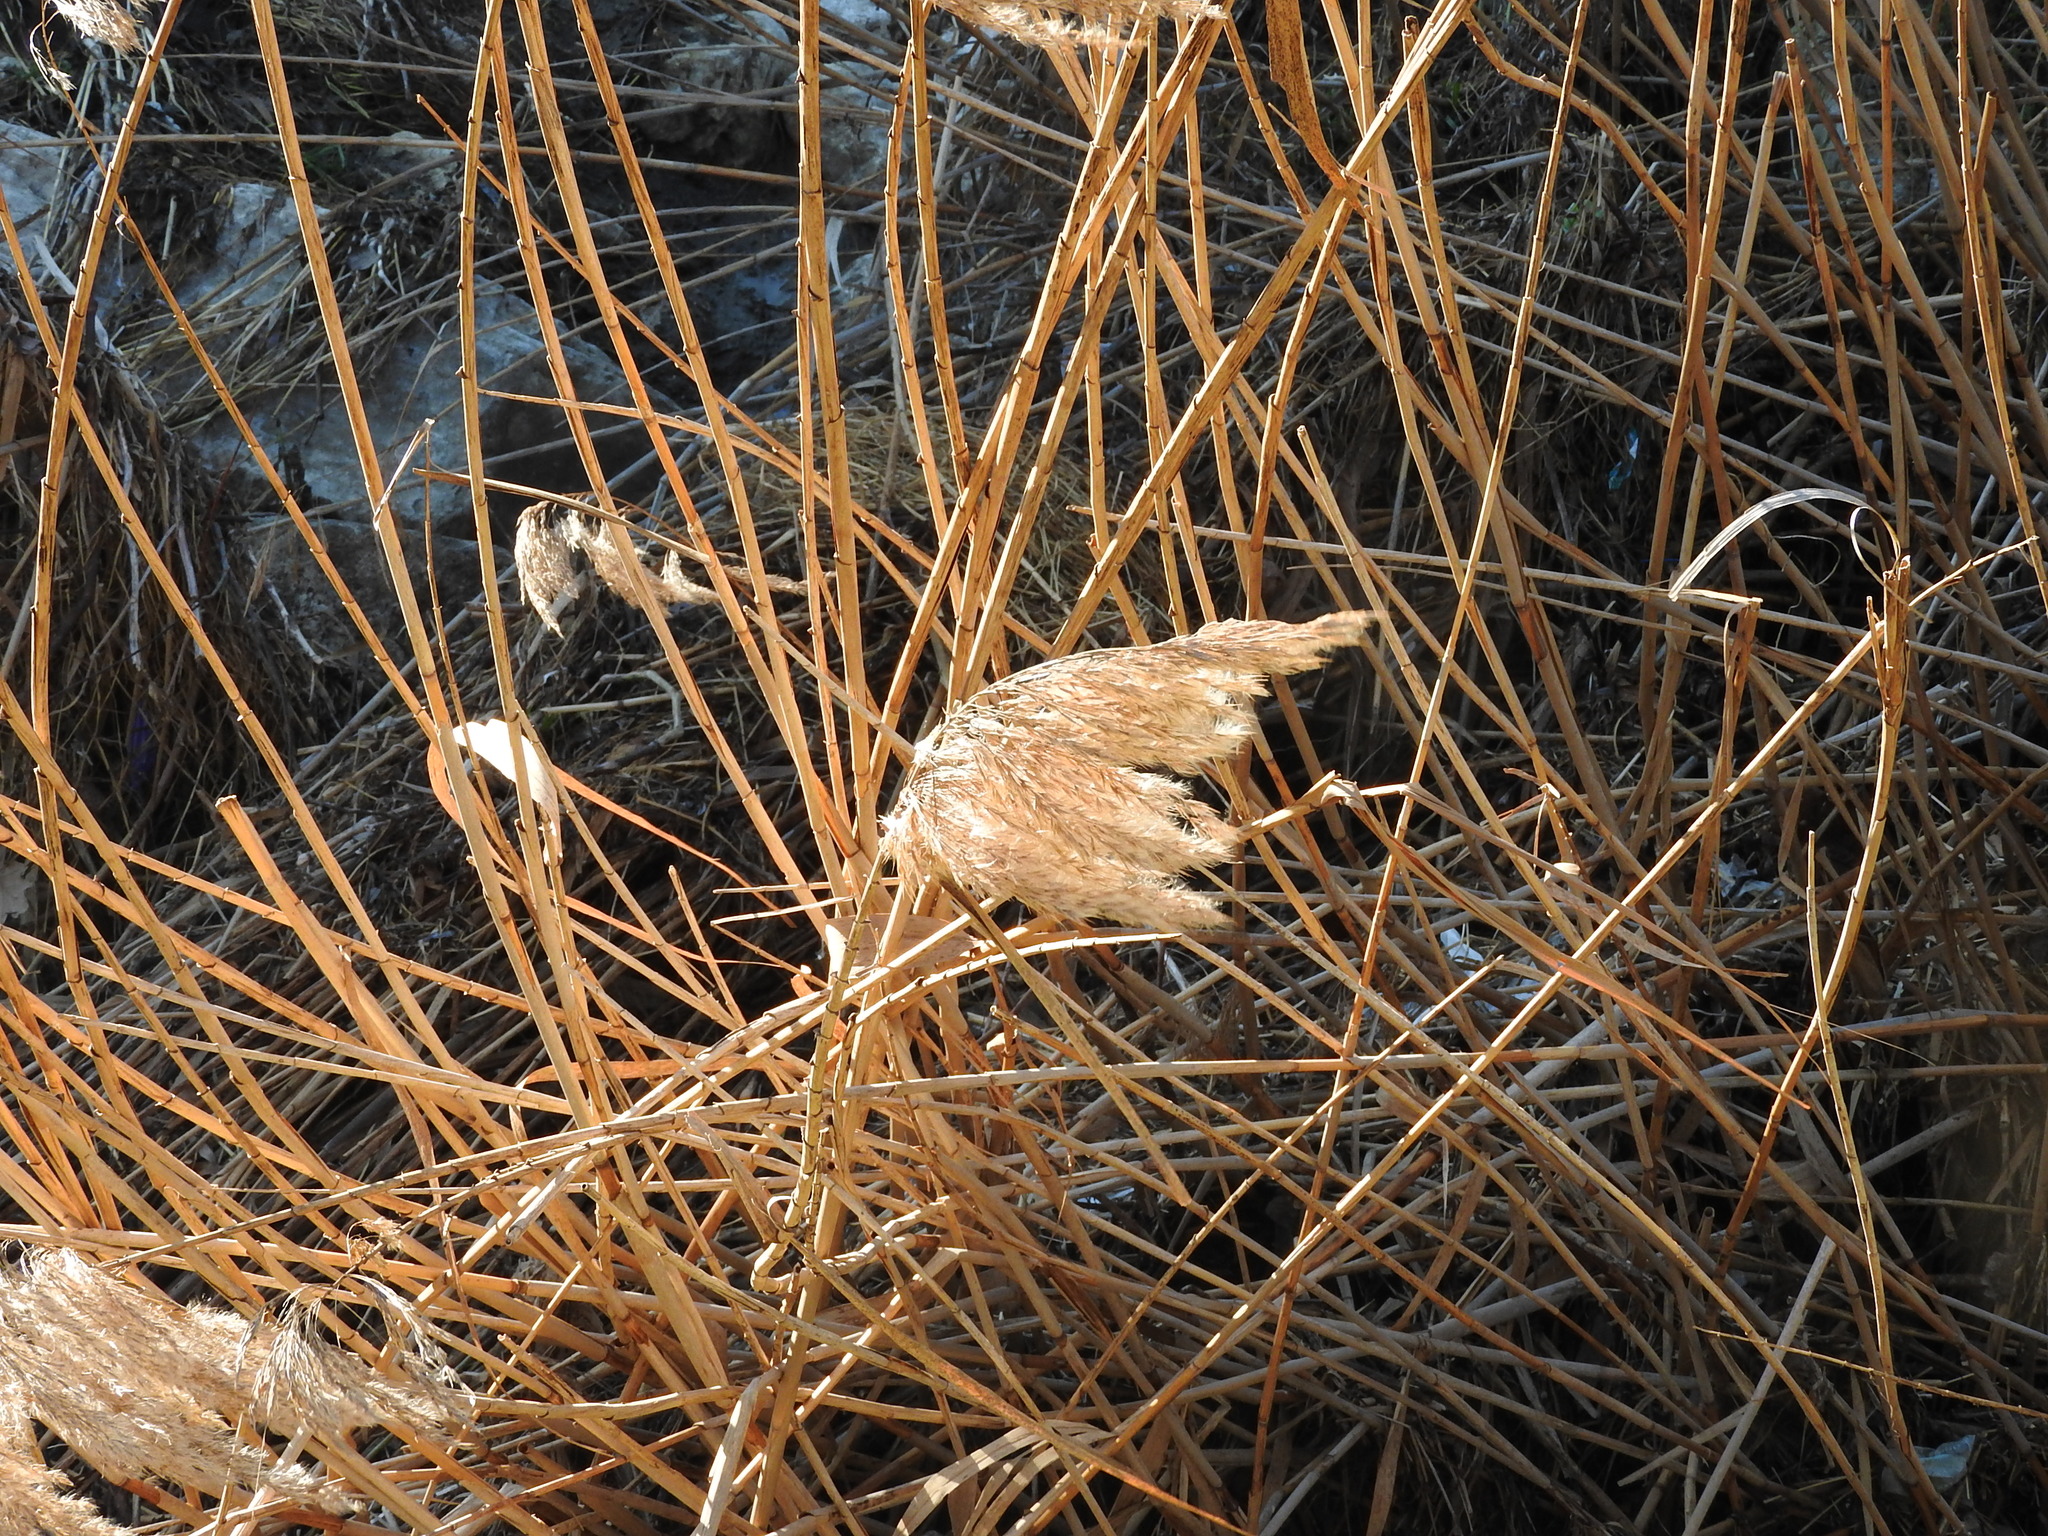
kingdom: Plantae
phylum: Tracheophyta
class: Liliopsida
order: Poales
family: Poaceae
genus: Phragmites
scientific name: Phragmites australis
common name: Common reed
